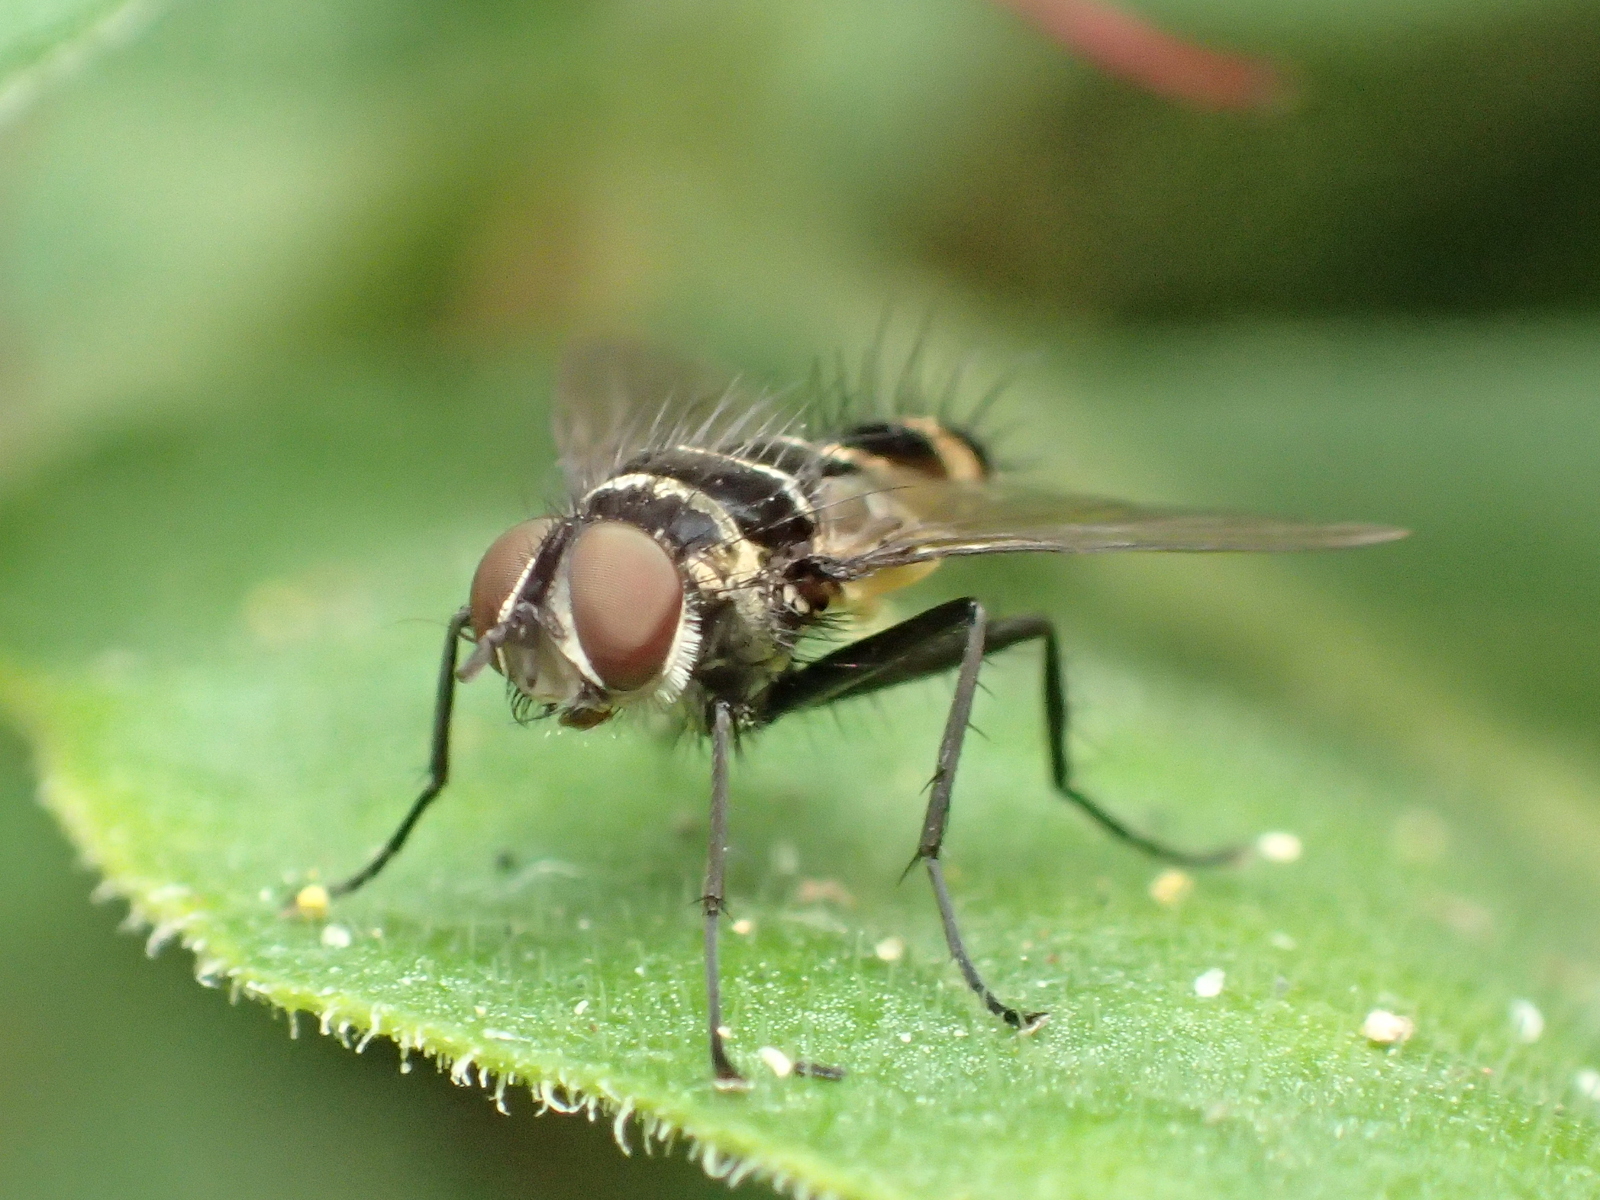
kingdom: Animalia
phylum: Arthropoda
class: Insecta
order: Diptera
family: Tachinidae
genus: Trigonospila
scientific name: Trigonospila brevifacies
